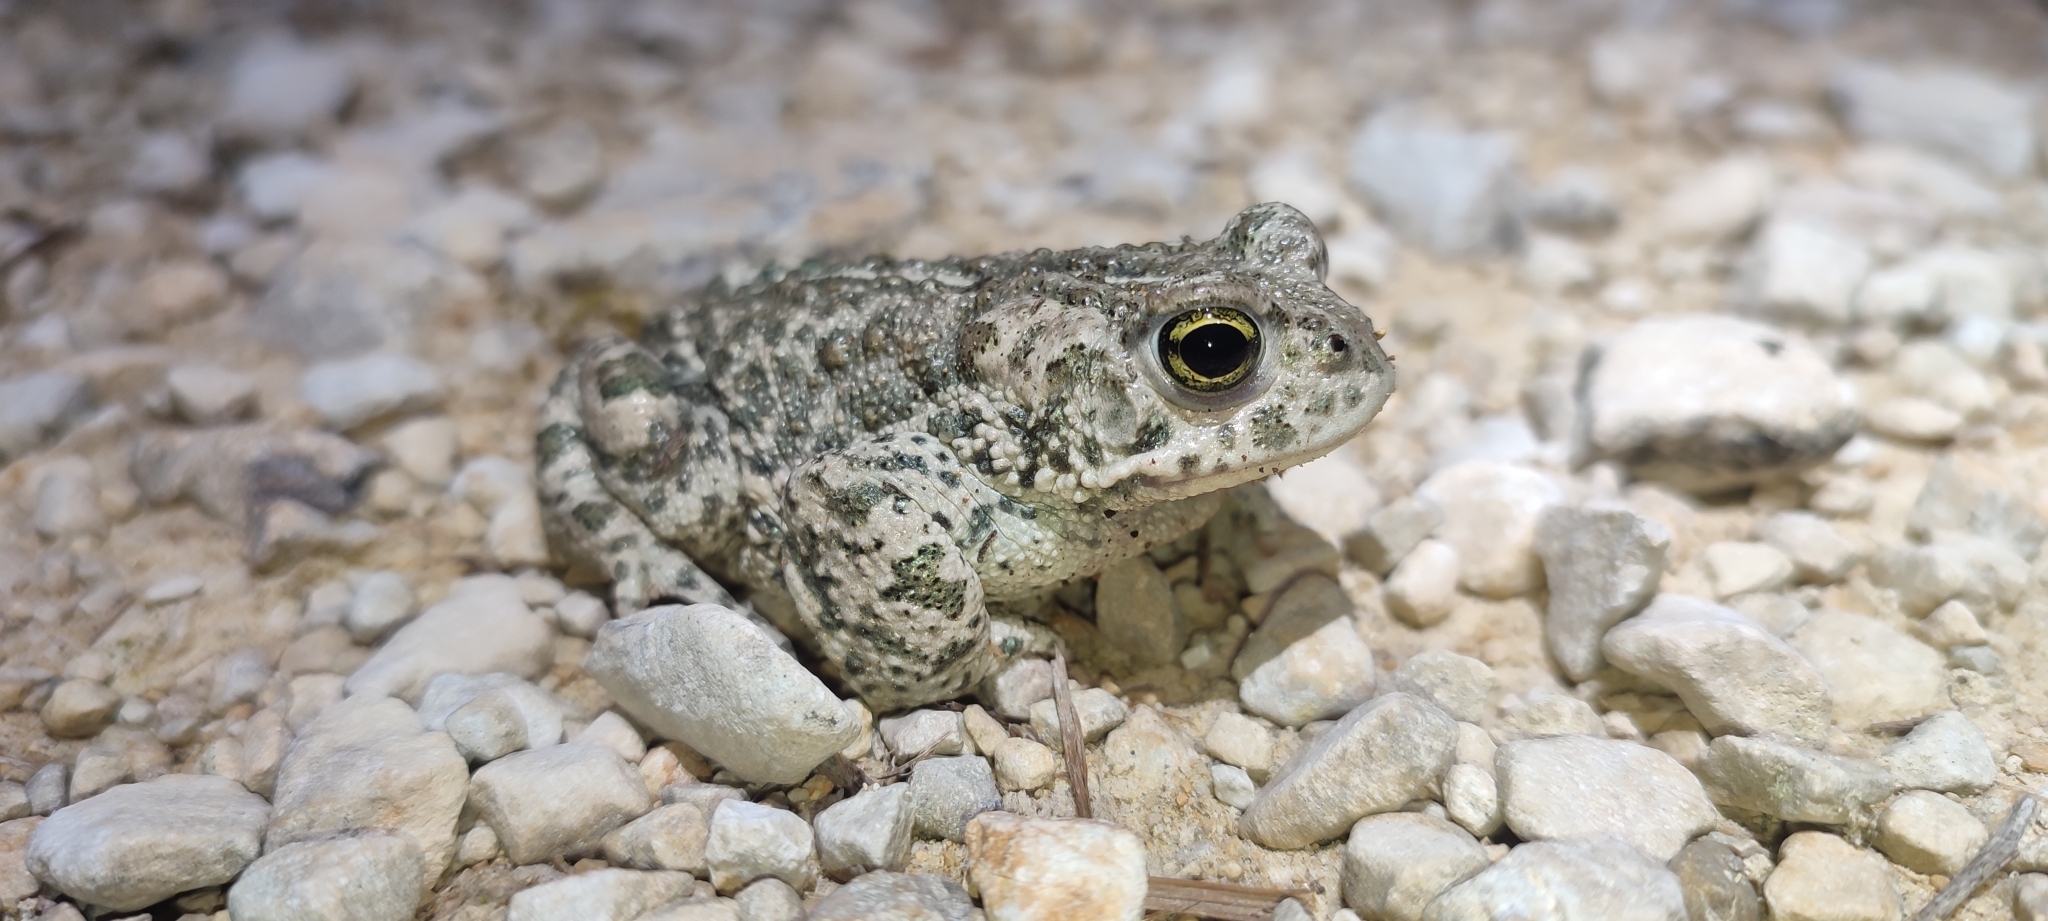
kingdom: Animalia
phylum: Chordata
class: Amphibia
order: Anura
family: Bufonidae
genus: Epidalea
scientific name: Epidalea calamita
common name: Natterjack toad
